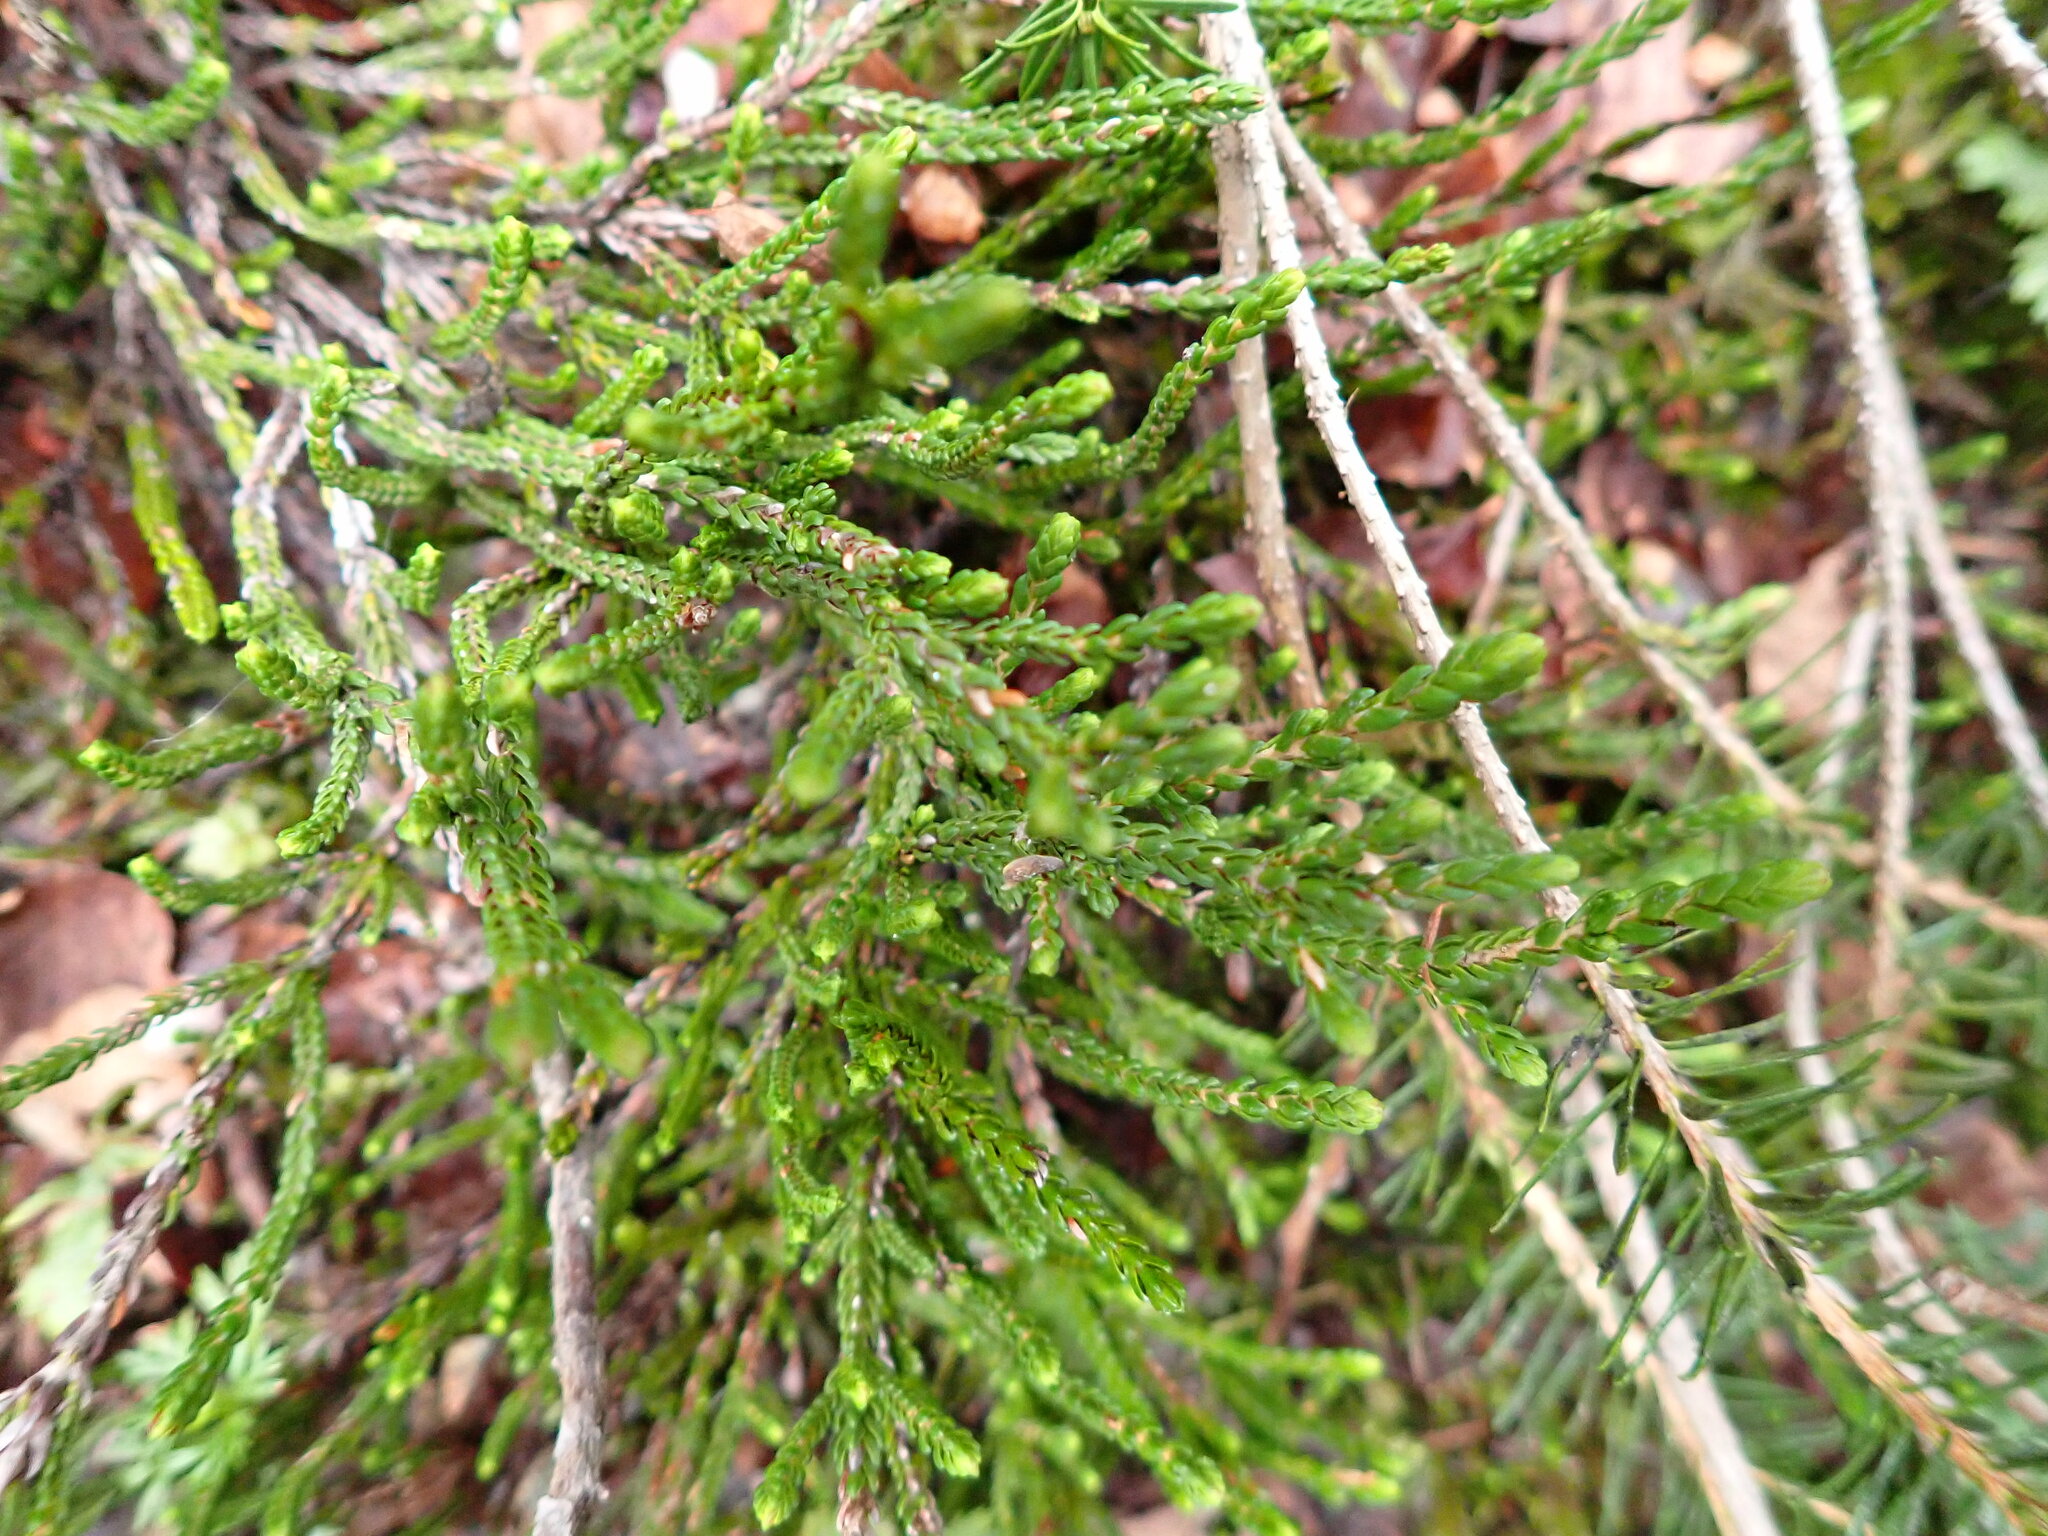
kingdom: Plantae
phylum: Tracheophyta
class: Magnoliopsida
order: Ericales
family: Ericaceae
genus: Cassiope
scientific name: Cassiope mertensiana
